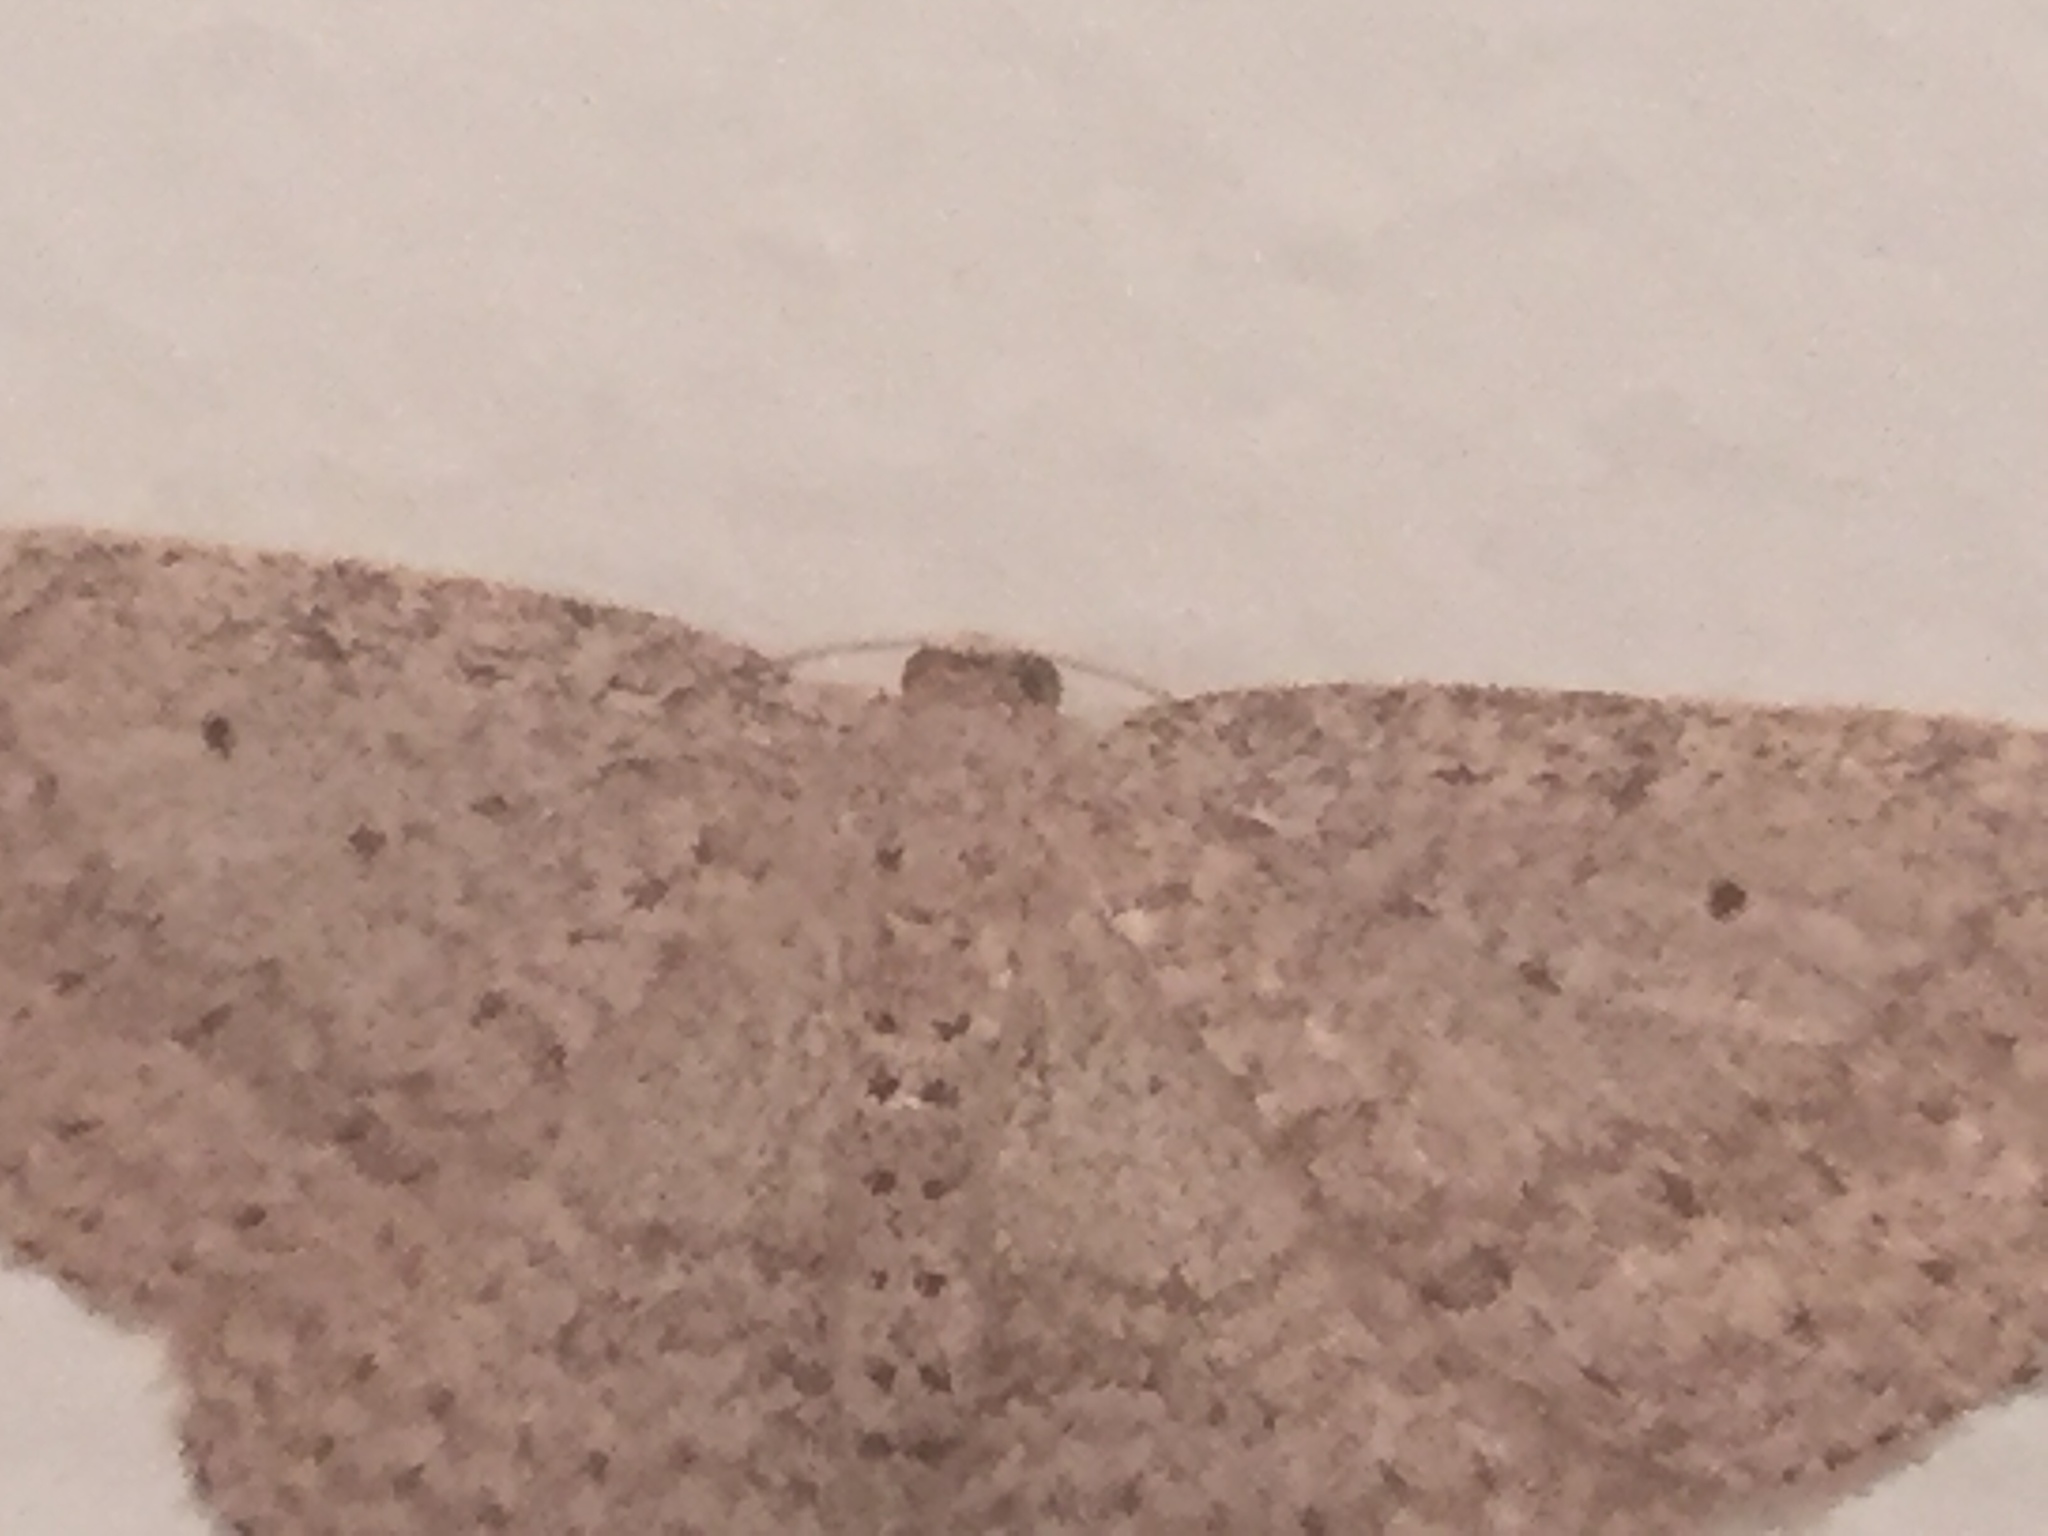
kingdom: Animalia
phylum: Arthropoda
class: Insecta
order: Lepidoptera
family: Geometridae
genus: Poecilasthena
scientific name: Poecilasthena schistaria
